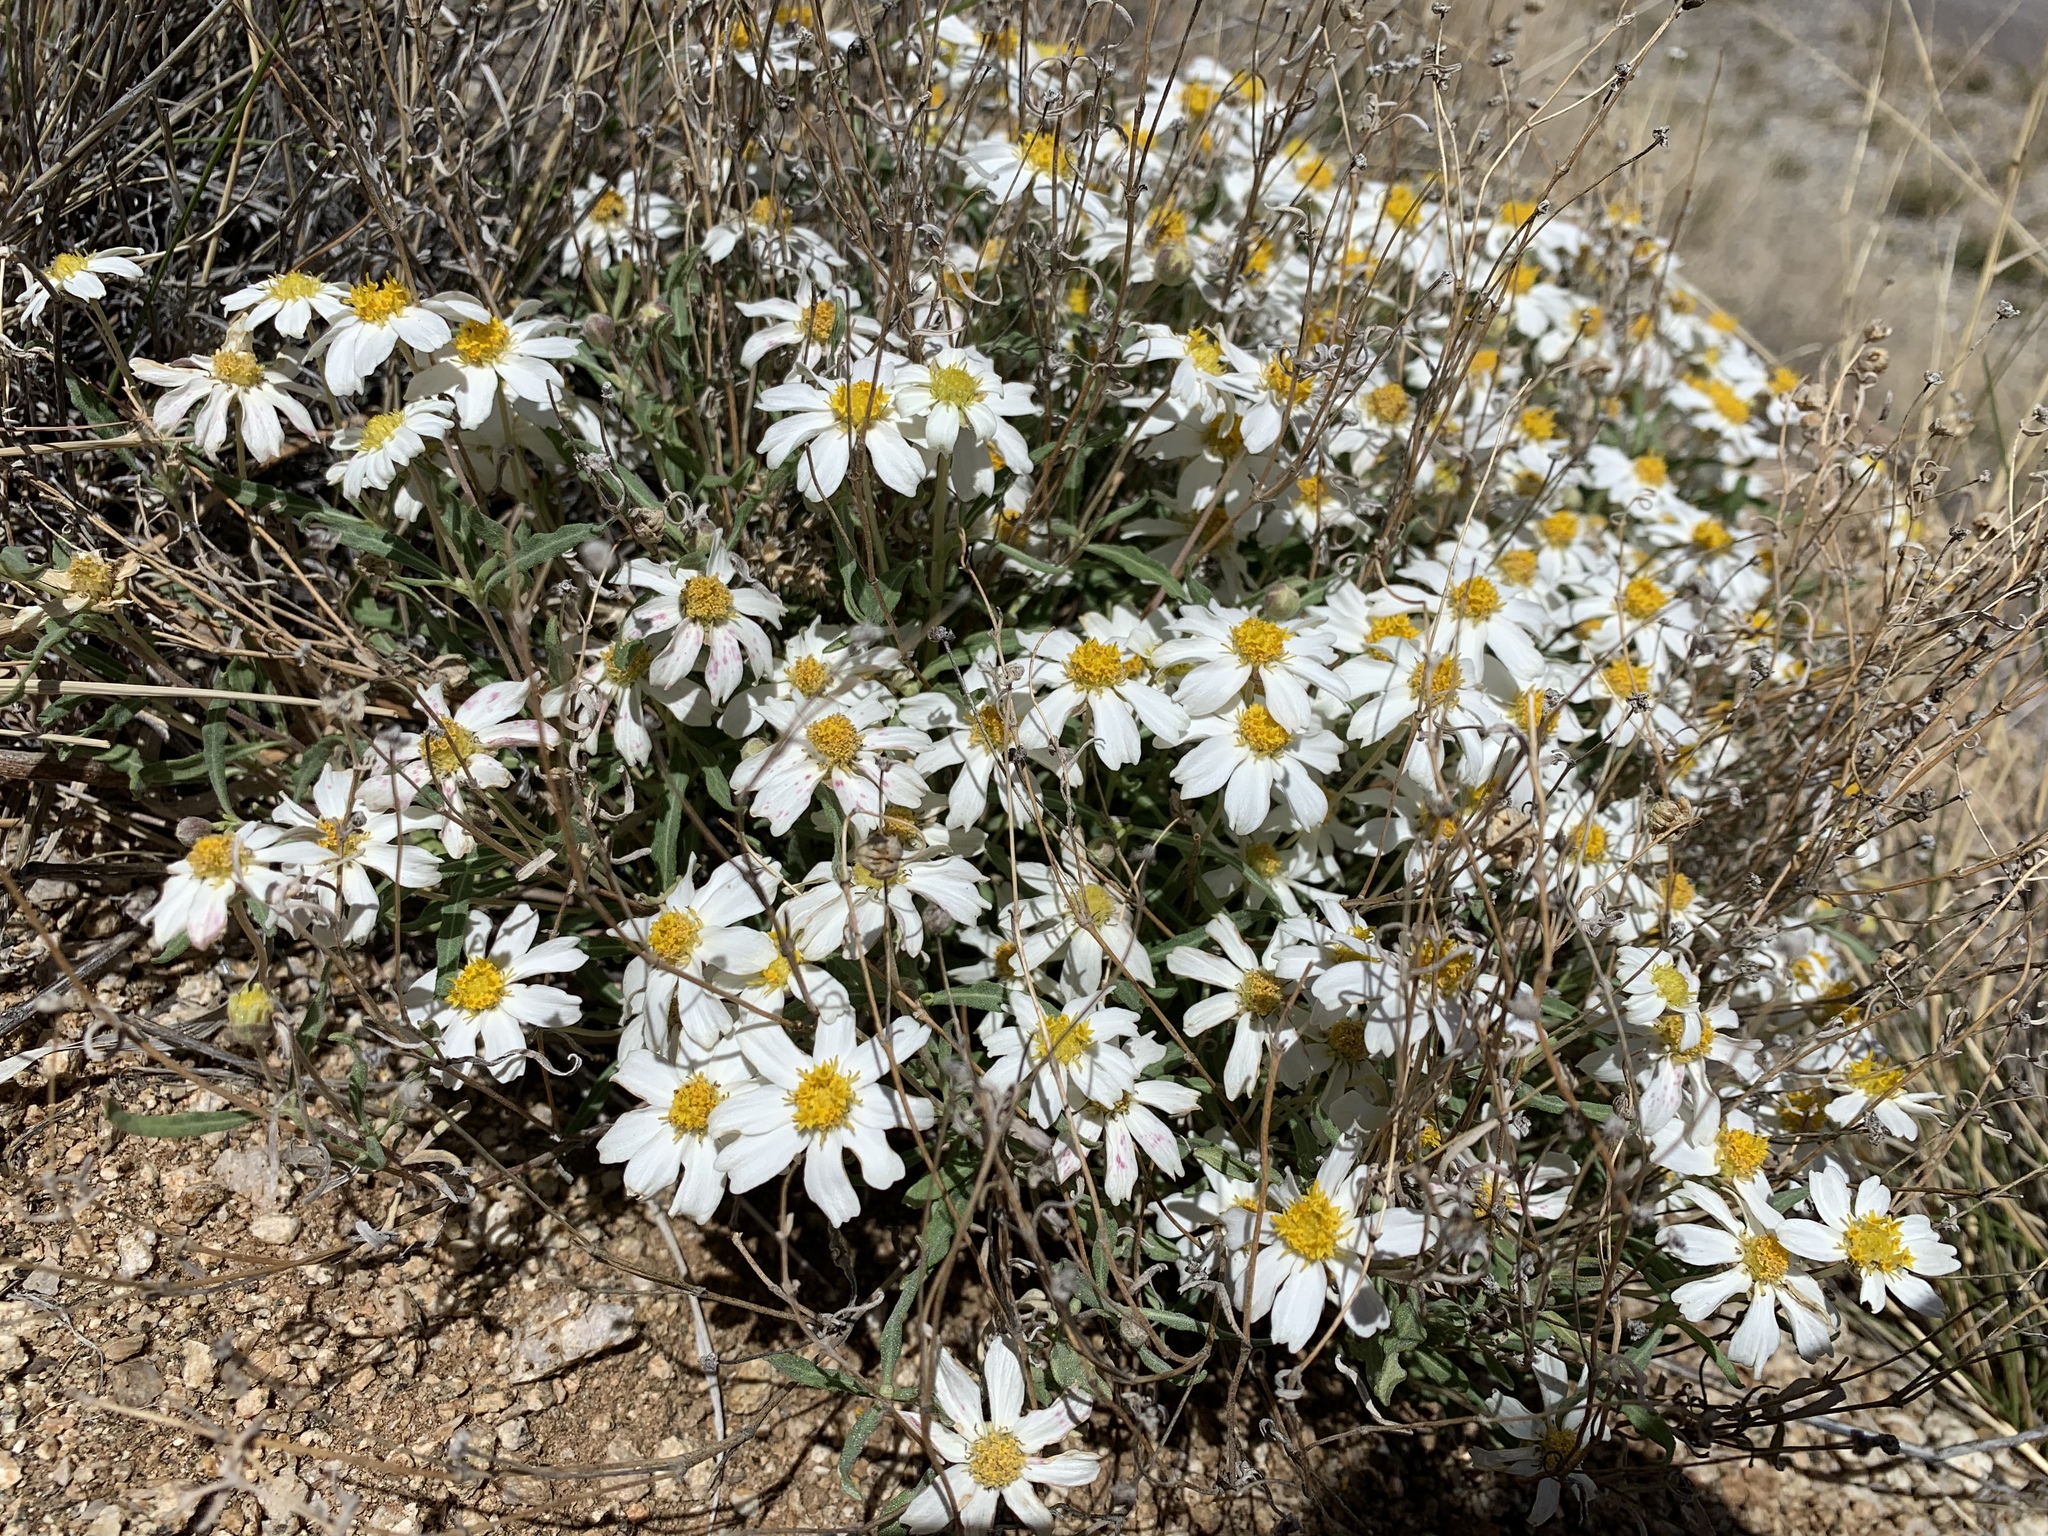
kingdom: Plantae
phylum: Tracheophyta
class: Magnoliopsida
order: Asterales
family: Asteraceae
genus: Melampodium
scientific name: Melampodium leucanthum
